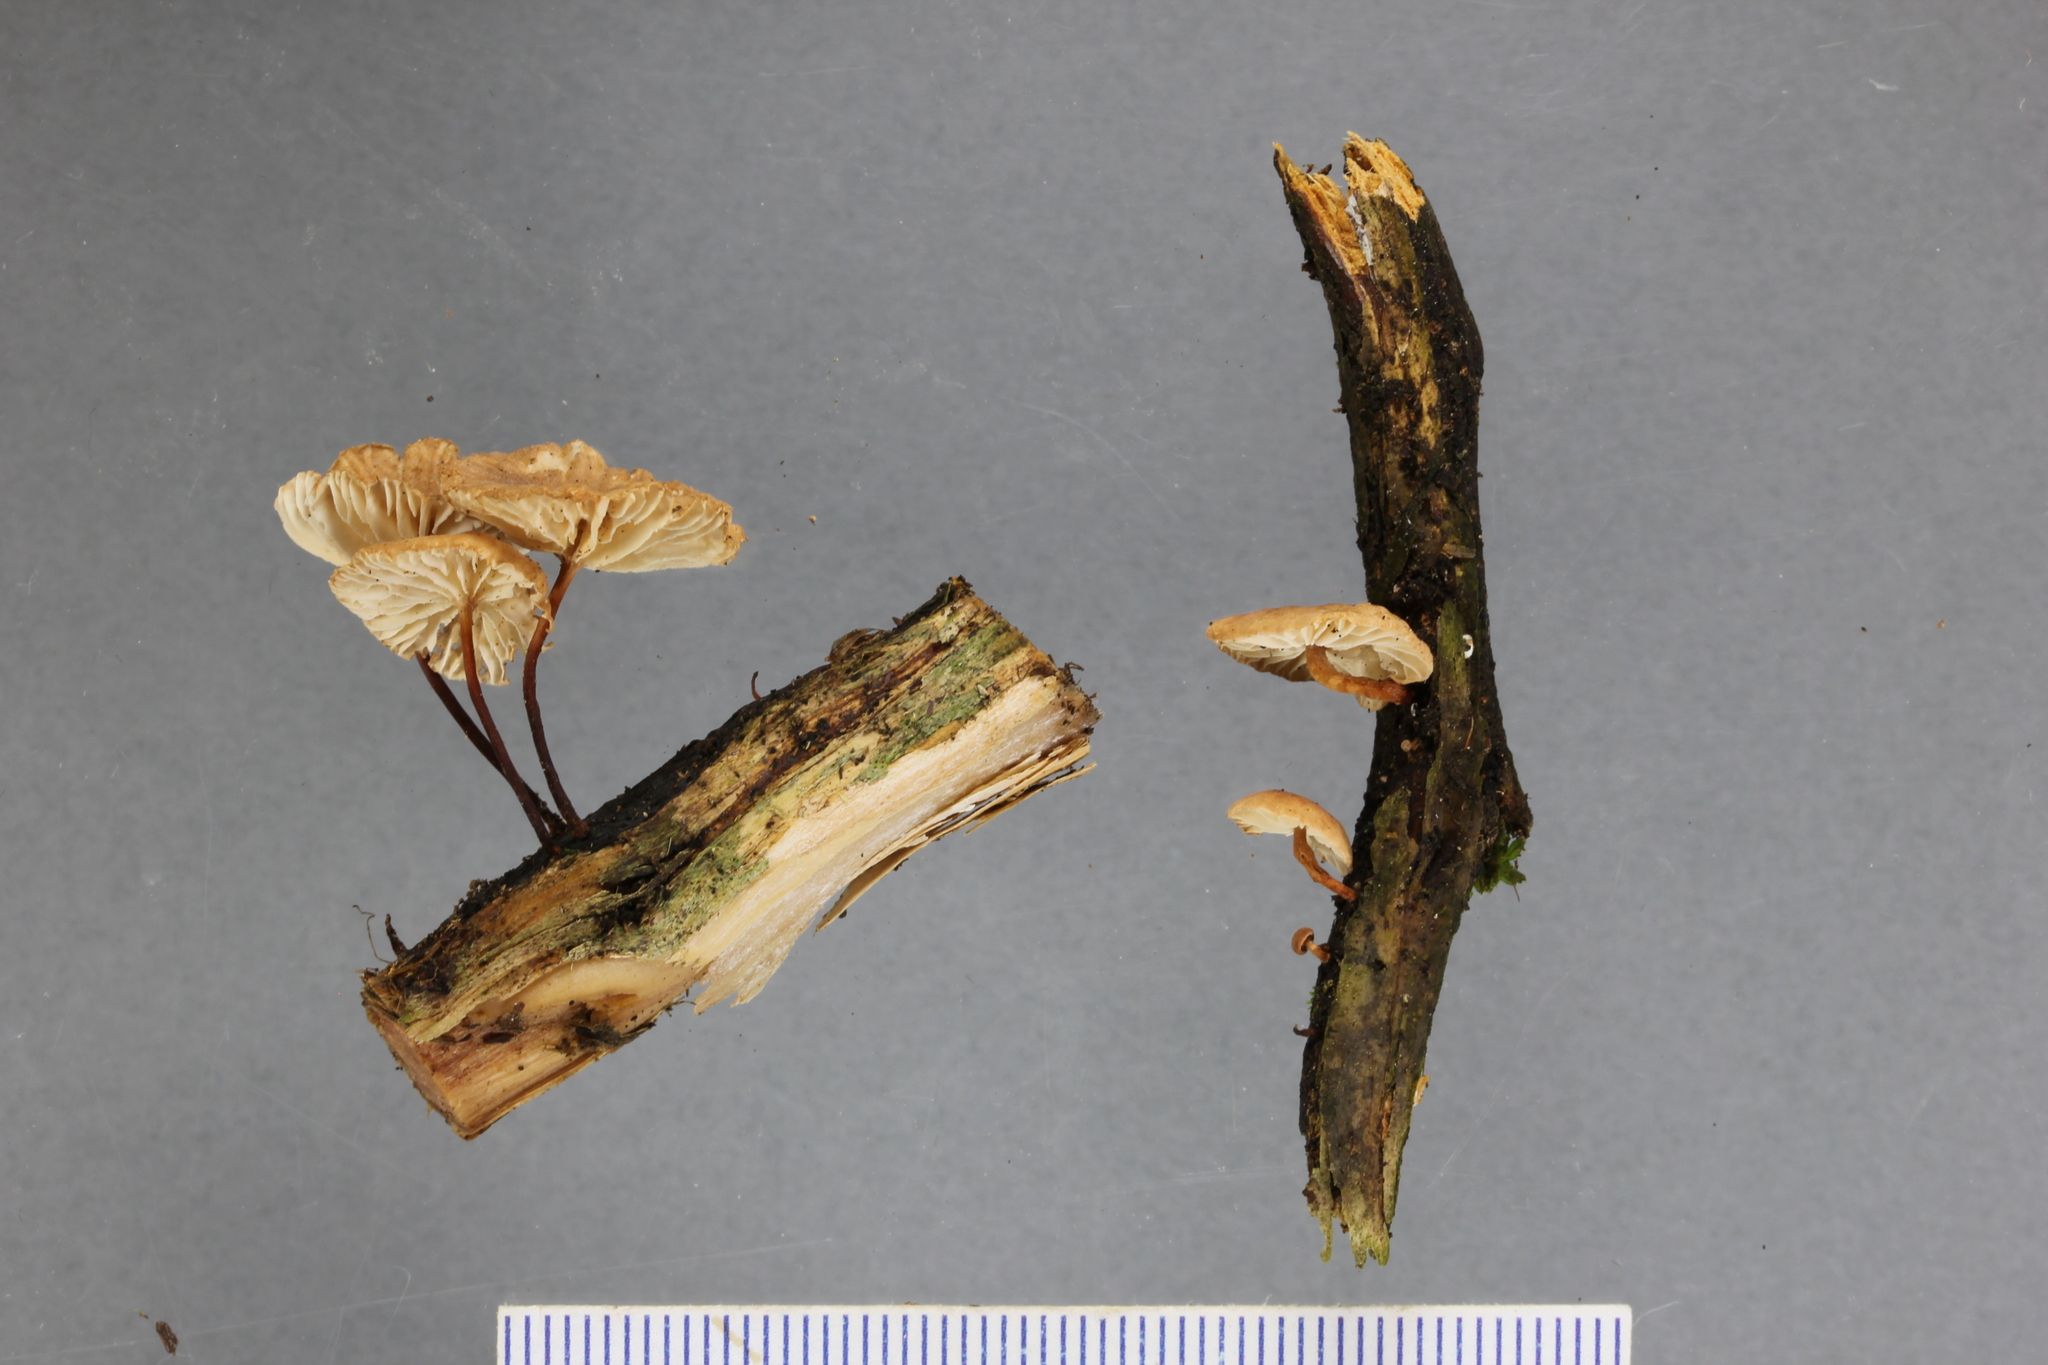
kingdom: Fungi
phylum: Basidiomycota
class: Agaricomycetes
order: Agaricales
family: Omphalotaceae
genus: Mycetinis
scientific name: Mycetinis curraniae
